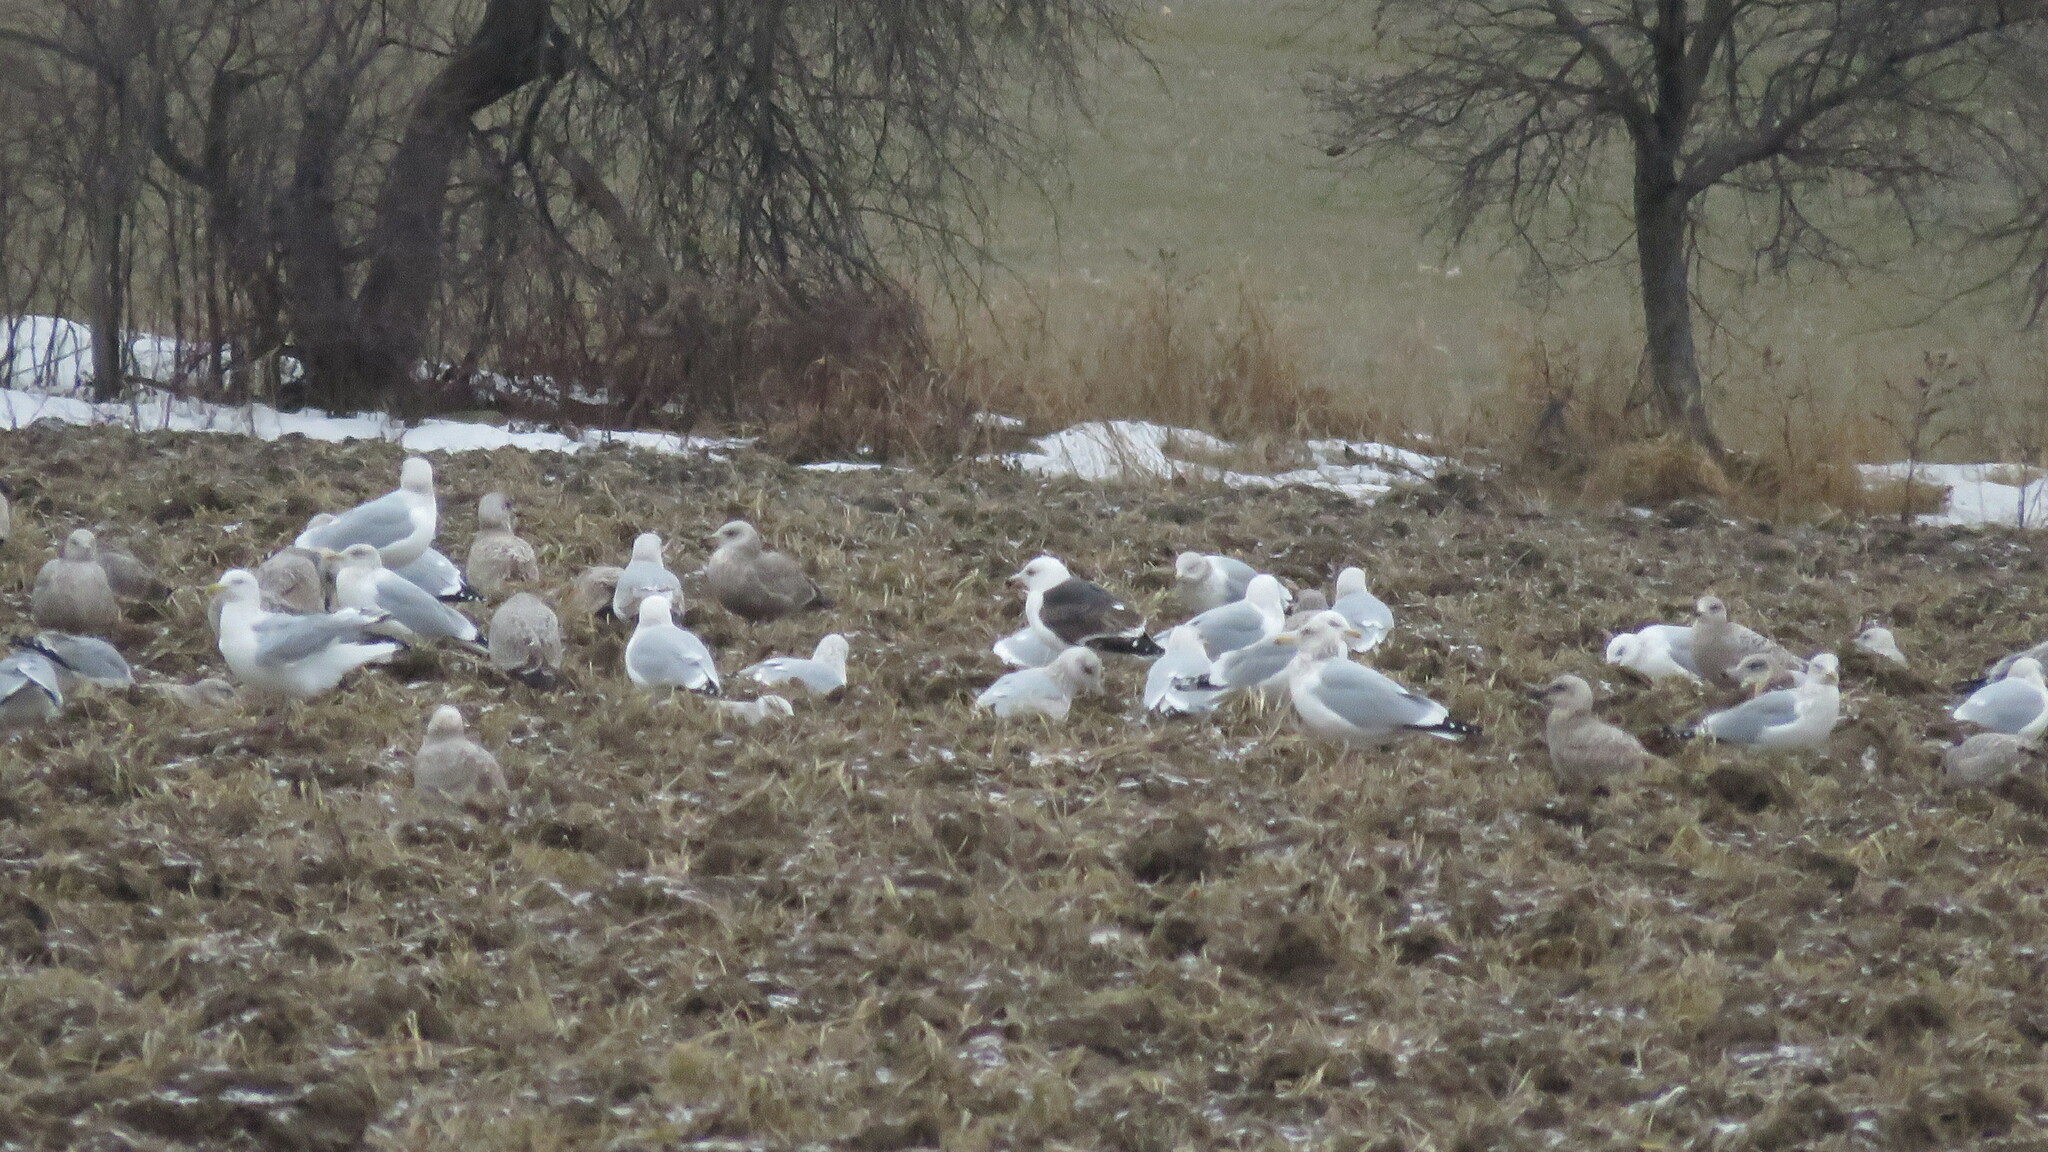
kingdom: Animalia
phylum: Chordata
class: Aves
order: Charadriiformes
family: Laridae
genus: Larus
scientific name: Larus marinus
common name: Great black-backed gull
